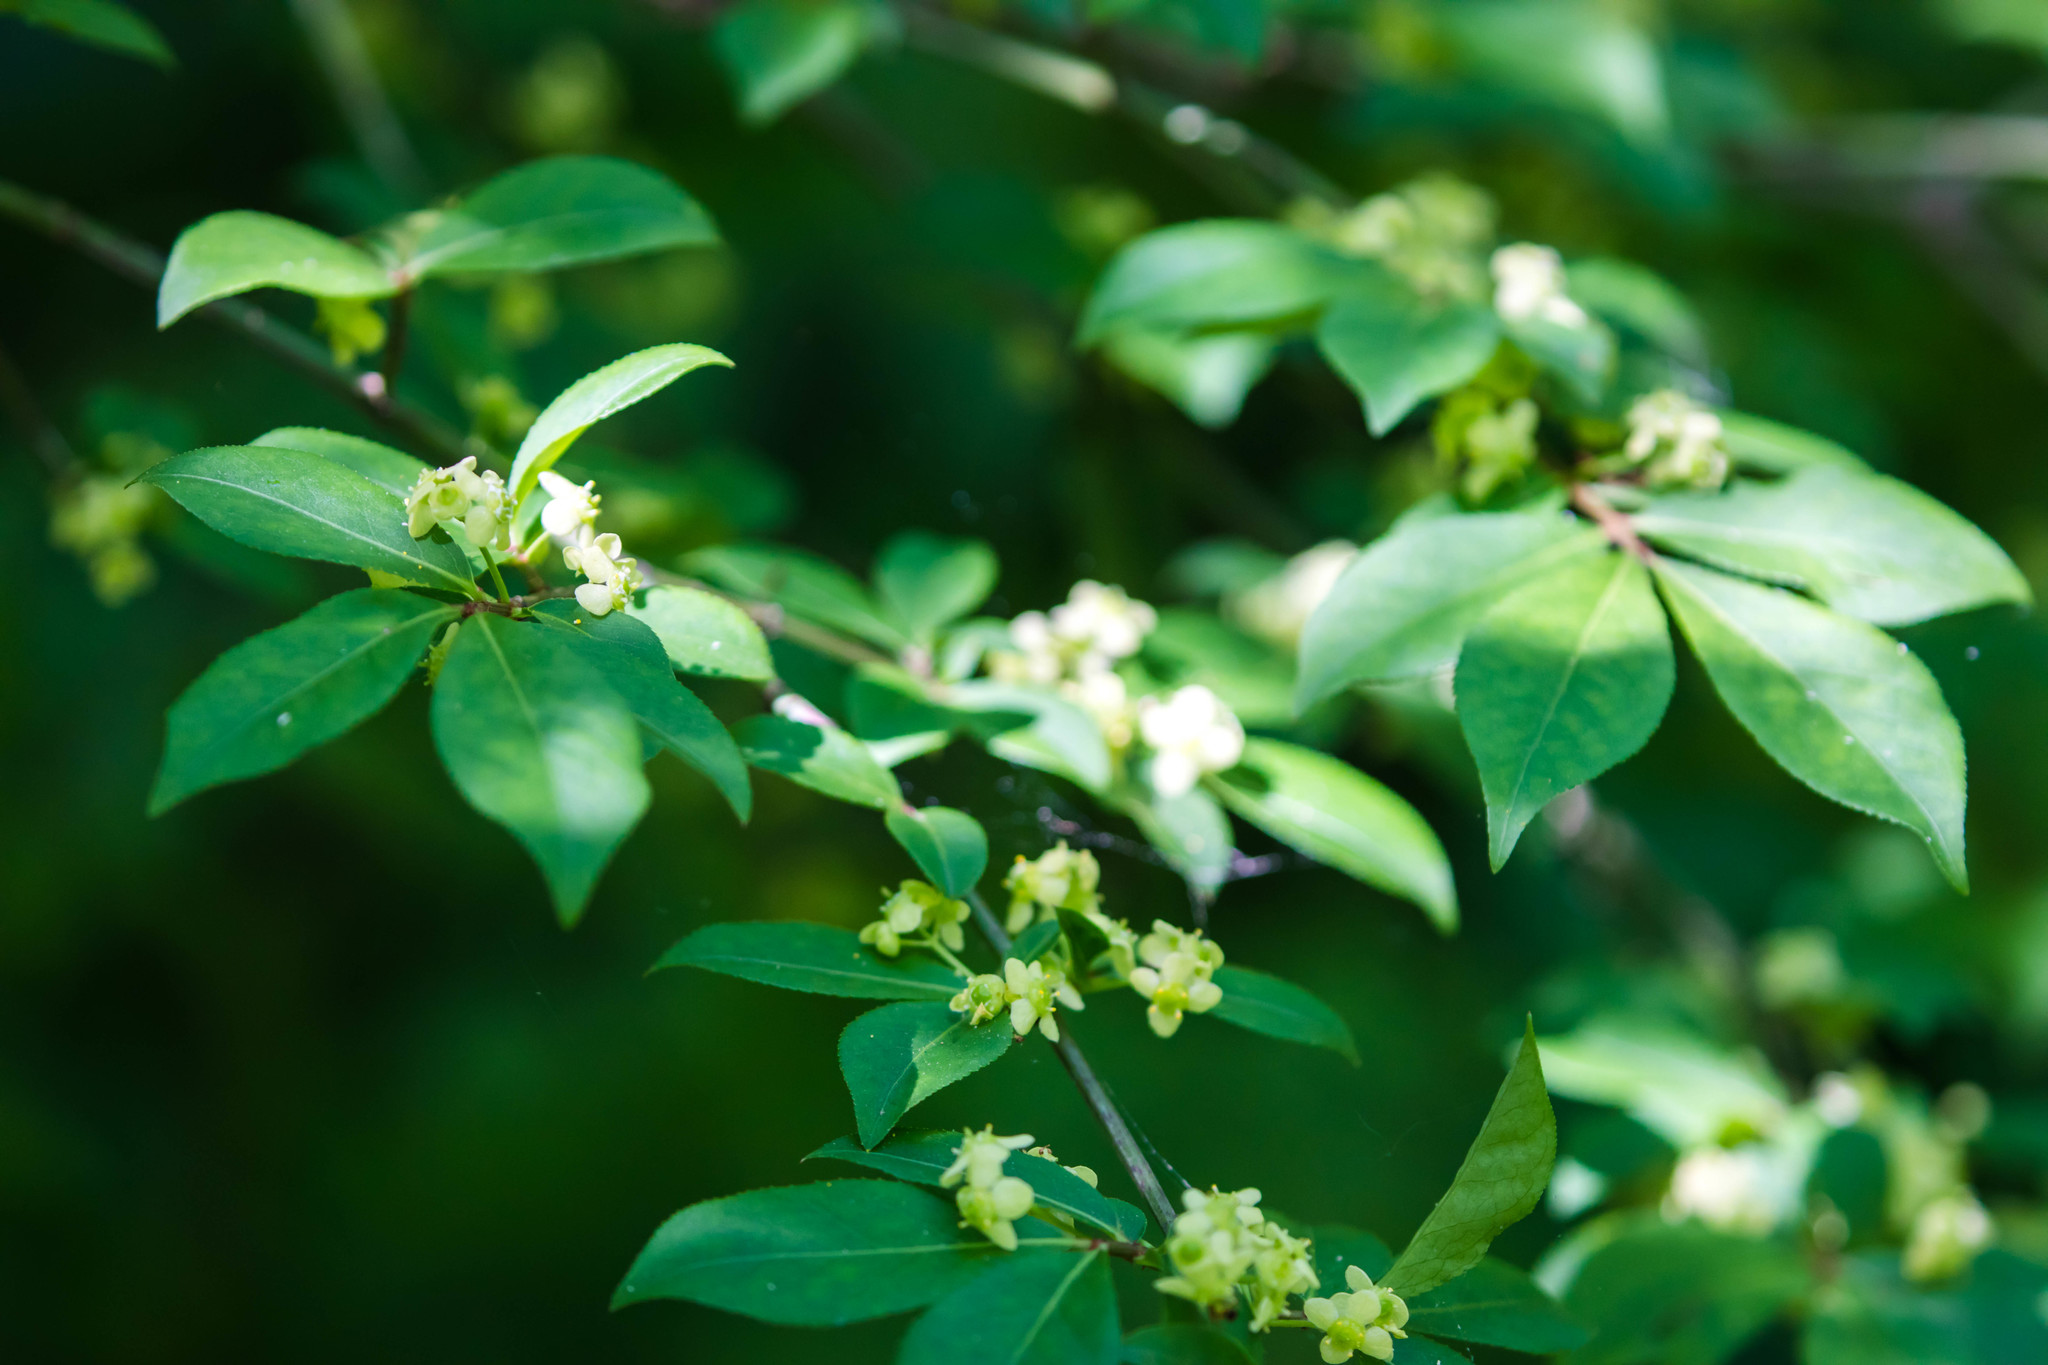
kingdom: Plantae
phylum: Tracheophyta
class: Magnoliopsida
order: Celastrales
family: Celastraceae
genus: Euonymus
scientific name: Euonymus alatus
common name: Winged euonymus
